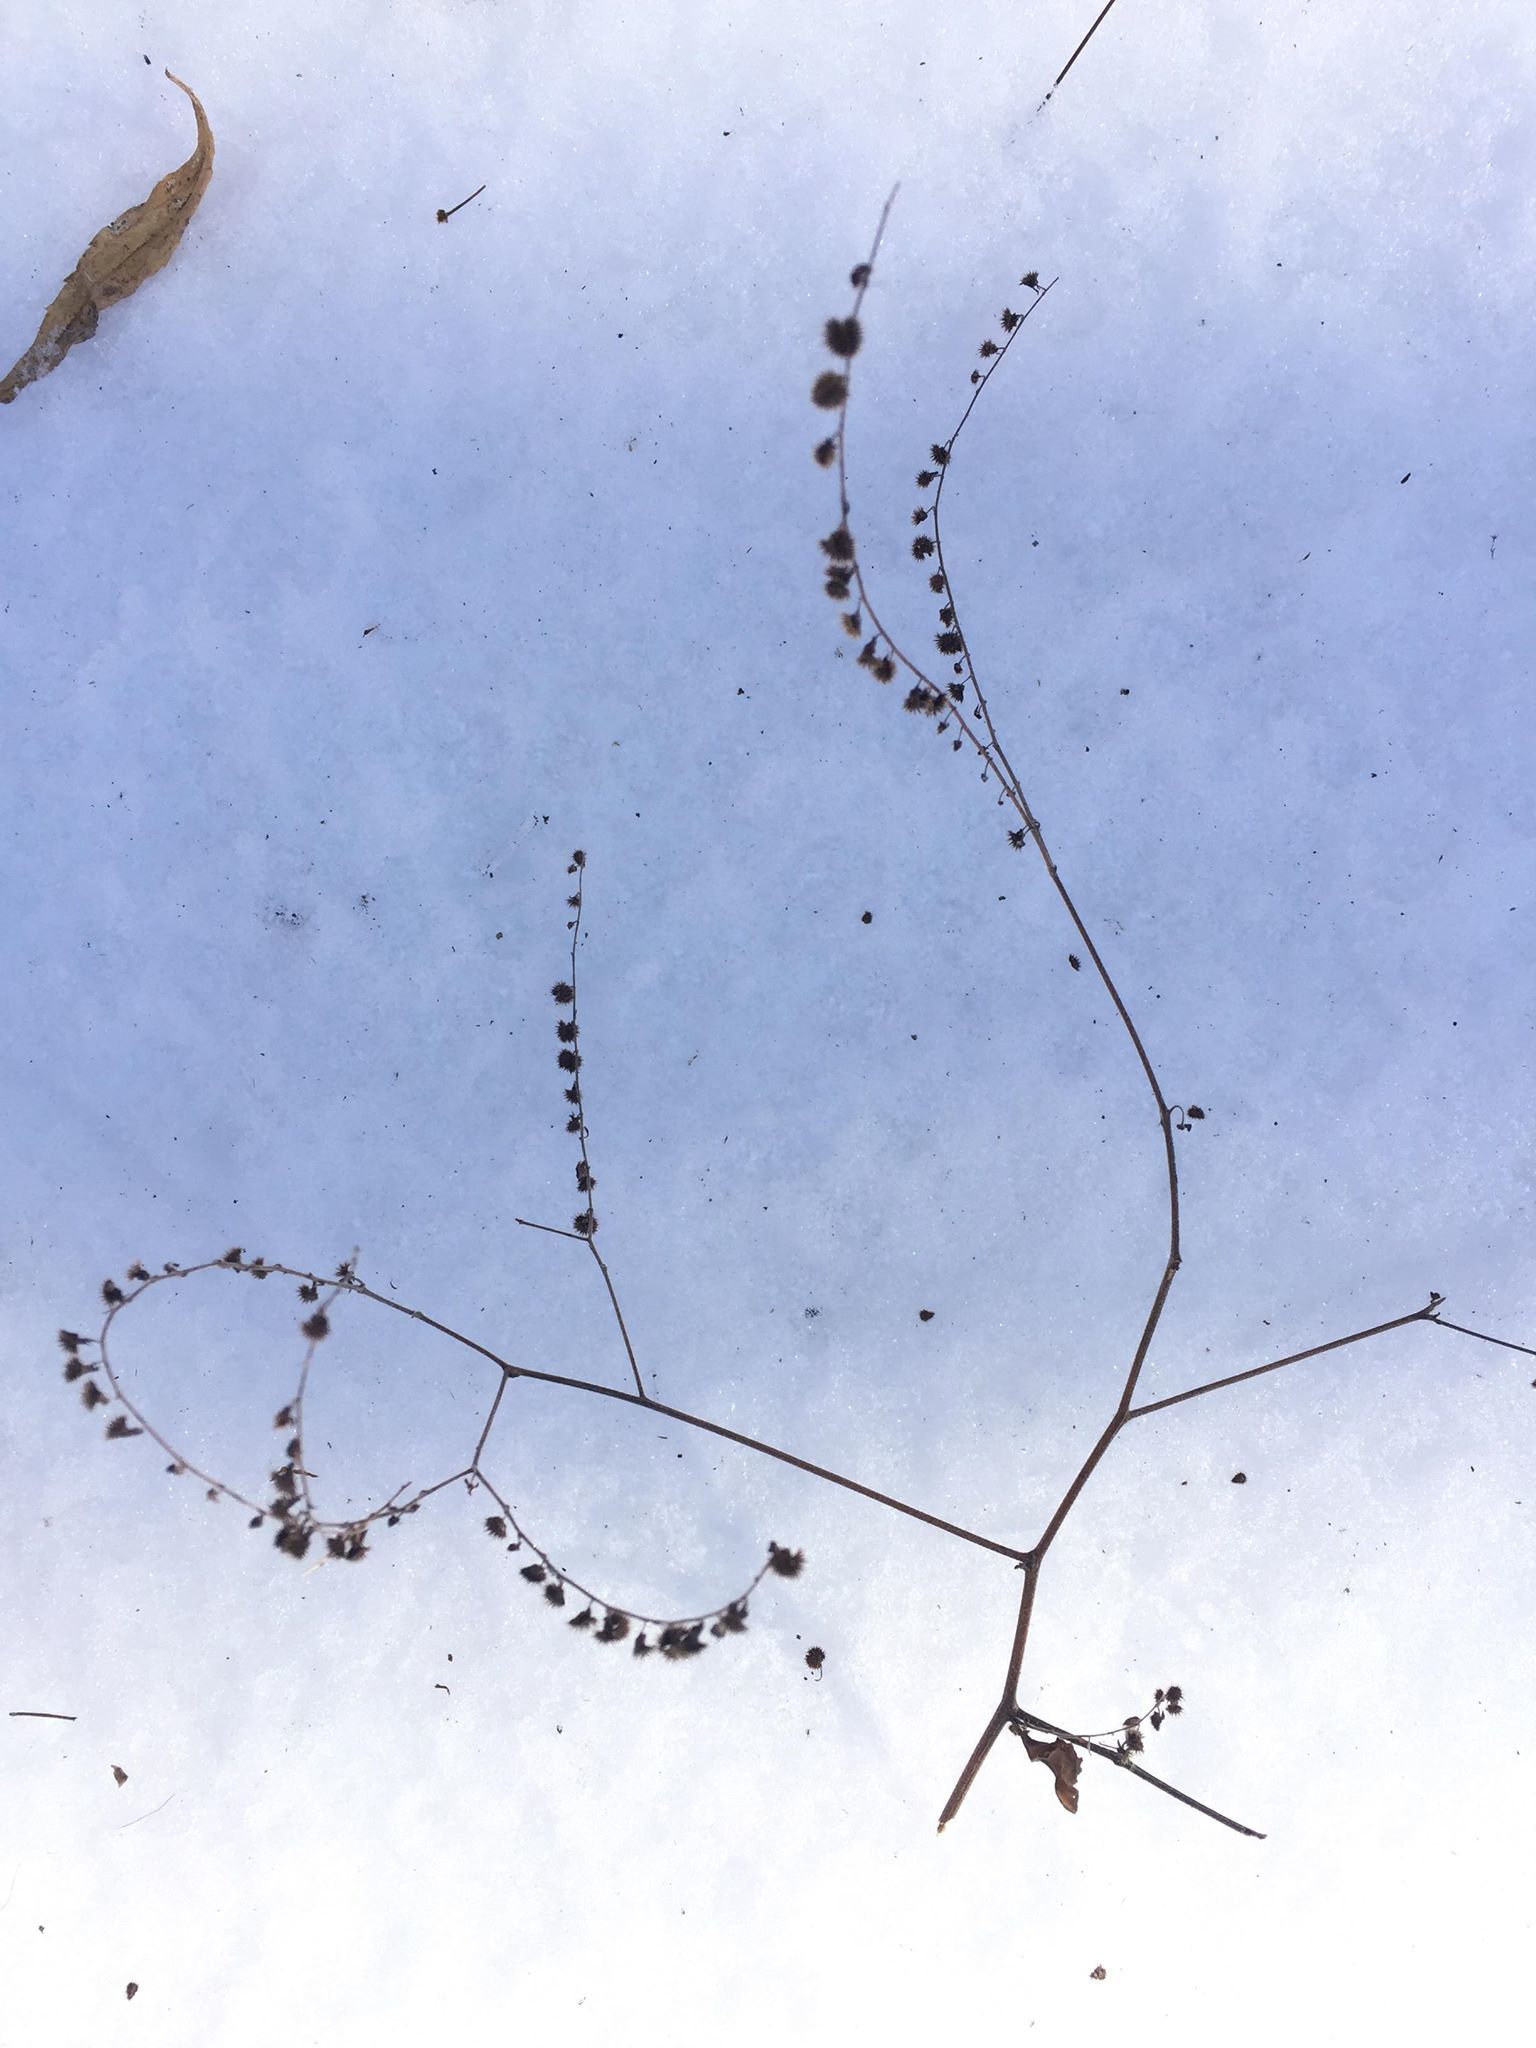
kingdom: Plantae
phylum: Tracheophyta
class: Magnoliopsida
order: Boraginales
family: Boraginaceae
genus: Hackelia
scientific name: Hackelia virginiana
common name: Beggar's-lice
